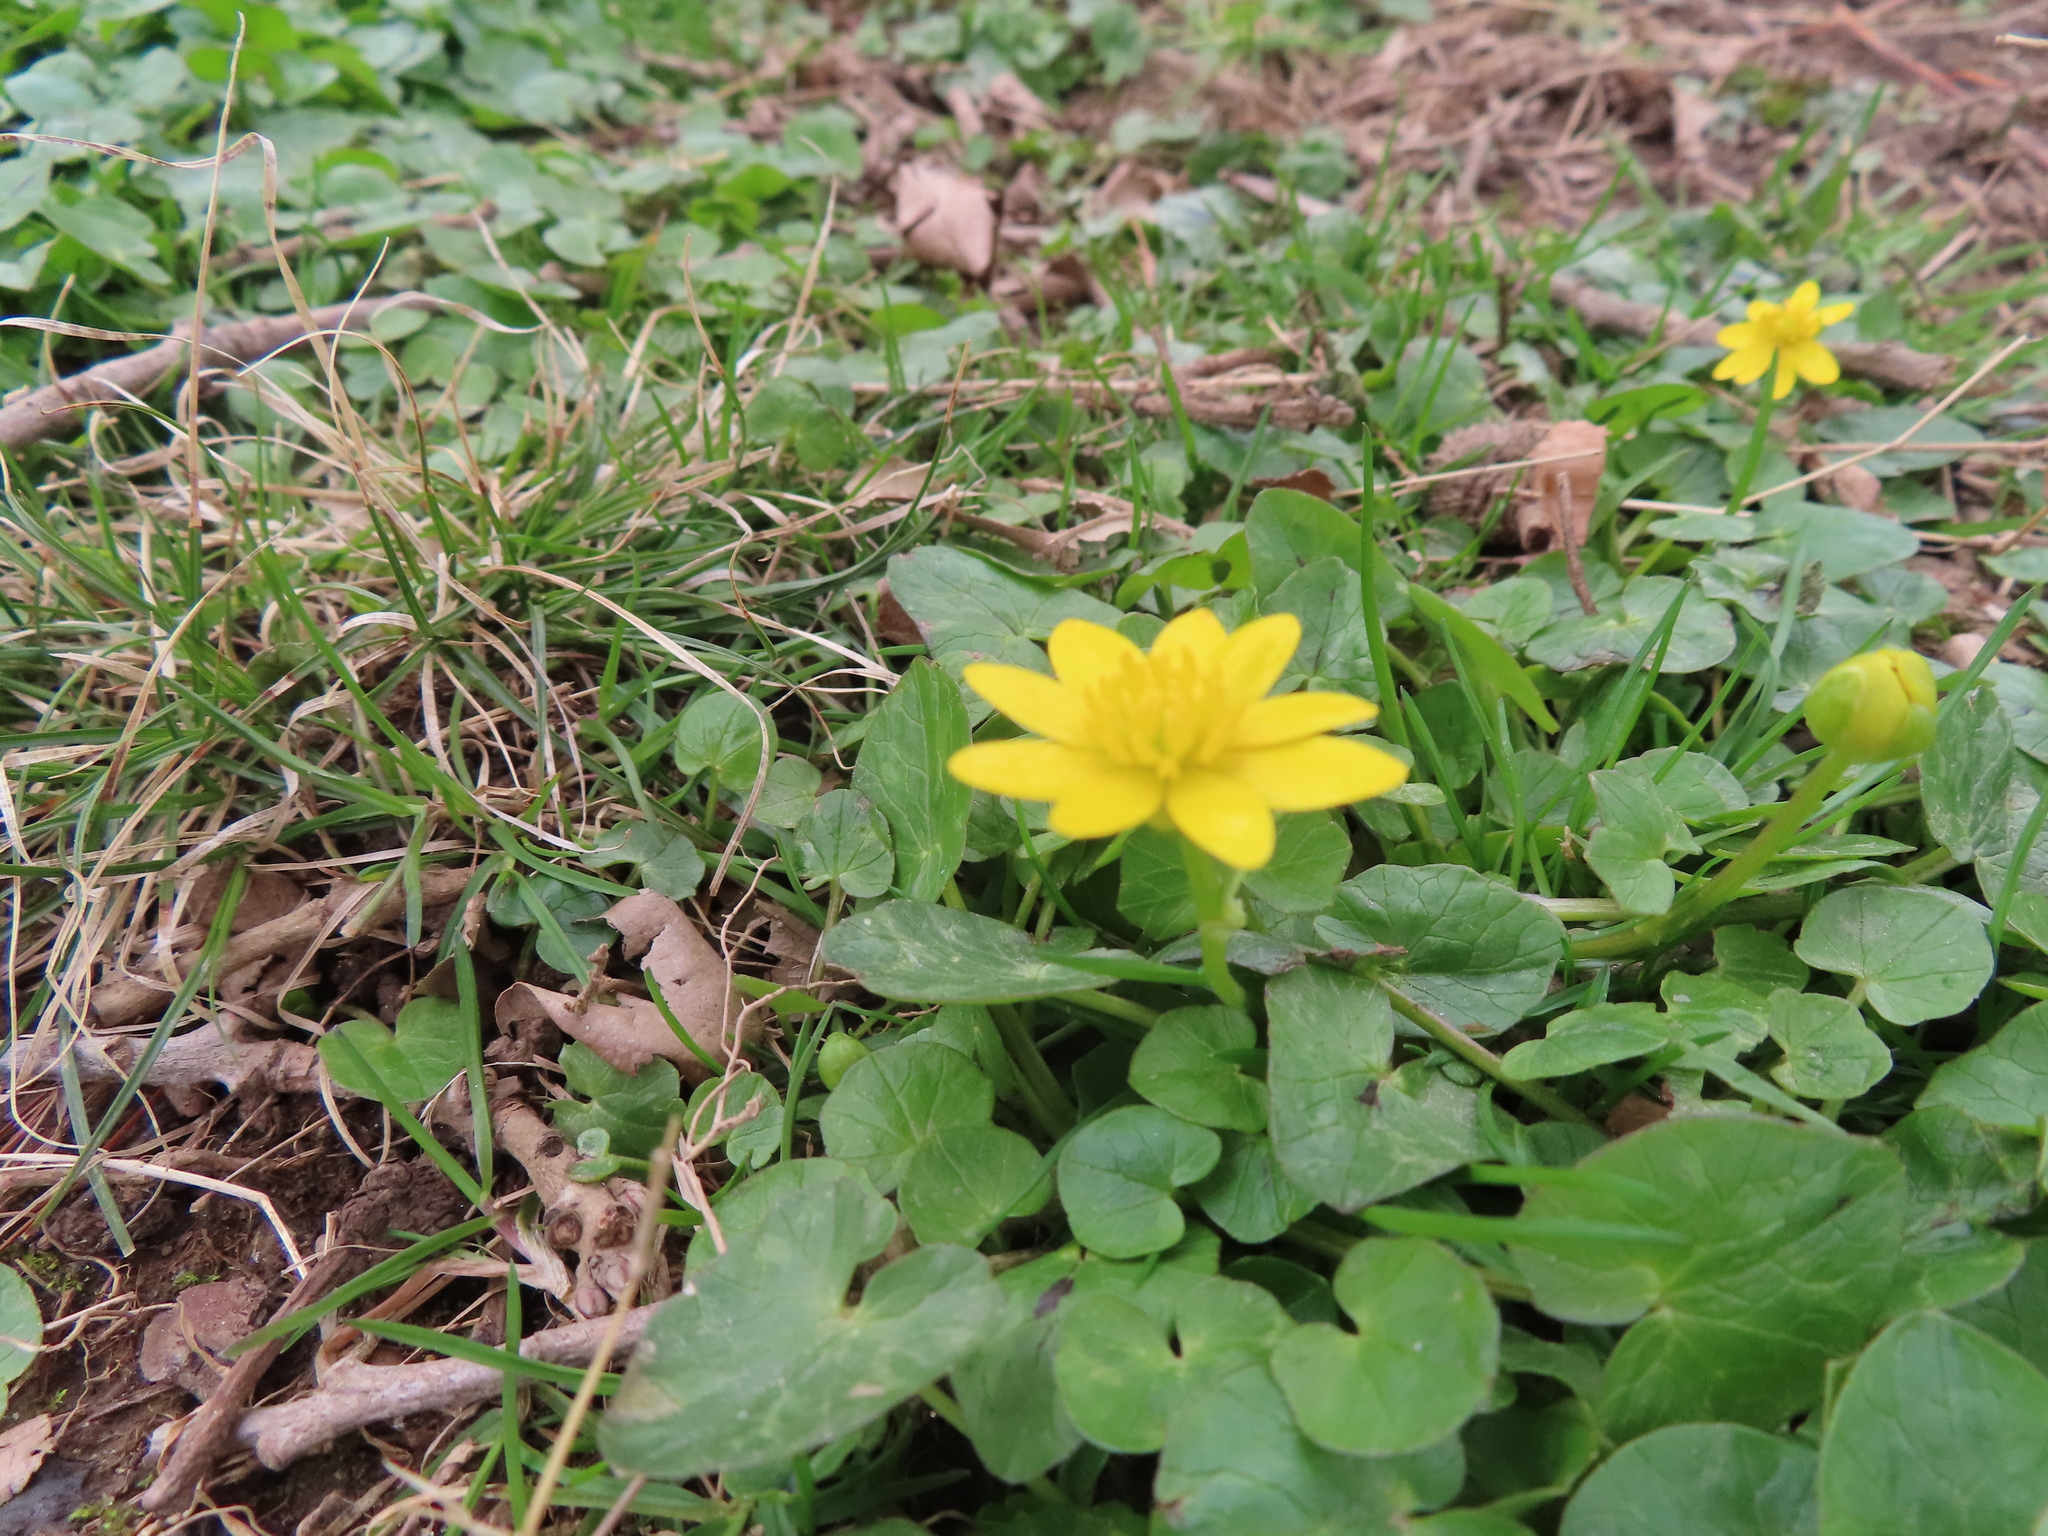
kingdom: Plantae
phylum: Tracheophyta
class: Magnoliopsida
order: Ranunculales
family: Ranunculaceae
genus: Ficaria
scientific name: Ficaria verna
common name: Lesser celandine
